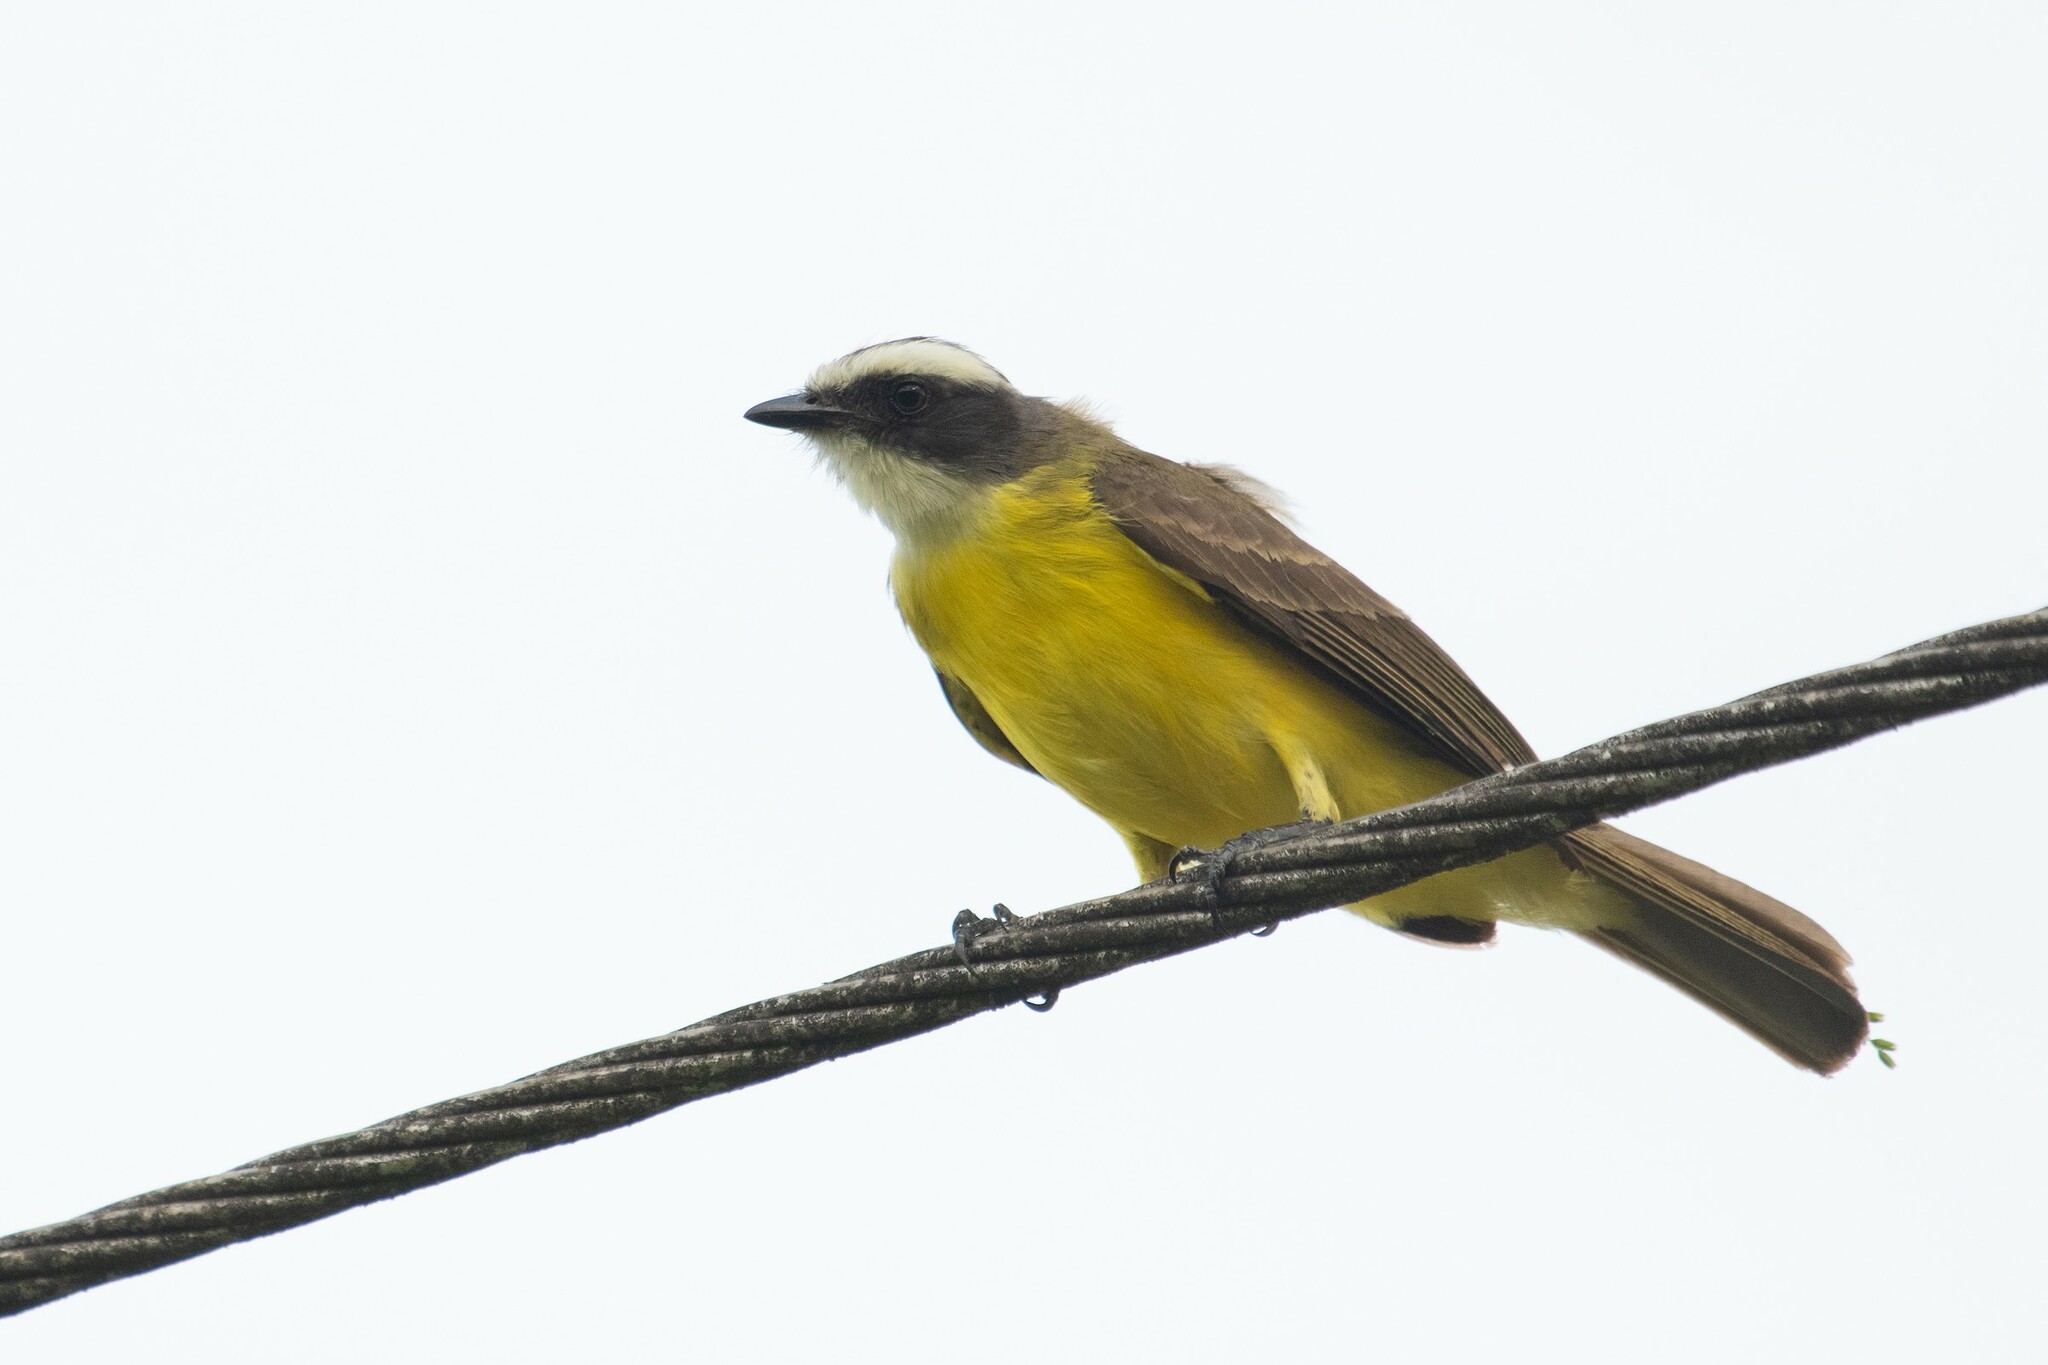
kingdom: Animalia
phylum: Chordata
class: Aves
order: Passeriformes
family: Tyrannidae
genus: Myiozetetes
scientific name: Myiozetetes similis
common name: Social flycatcher
